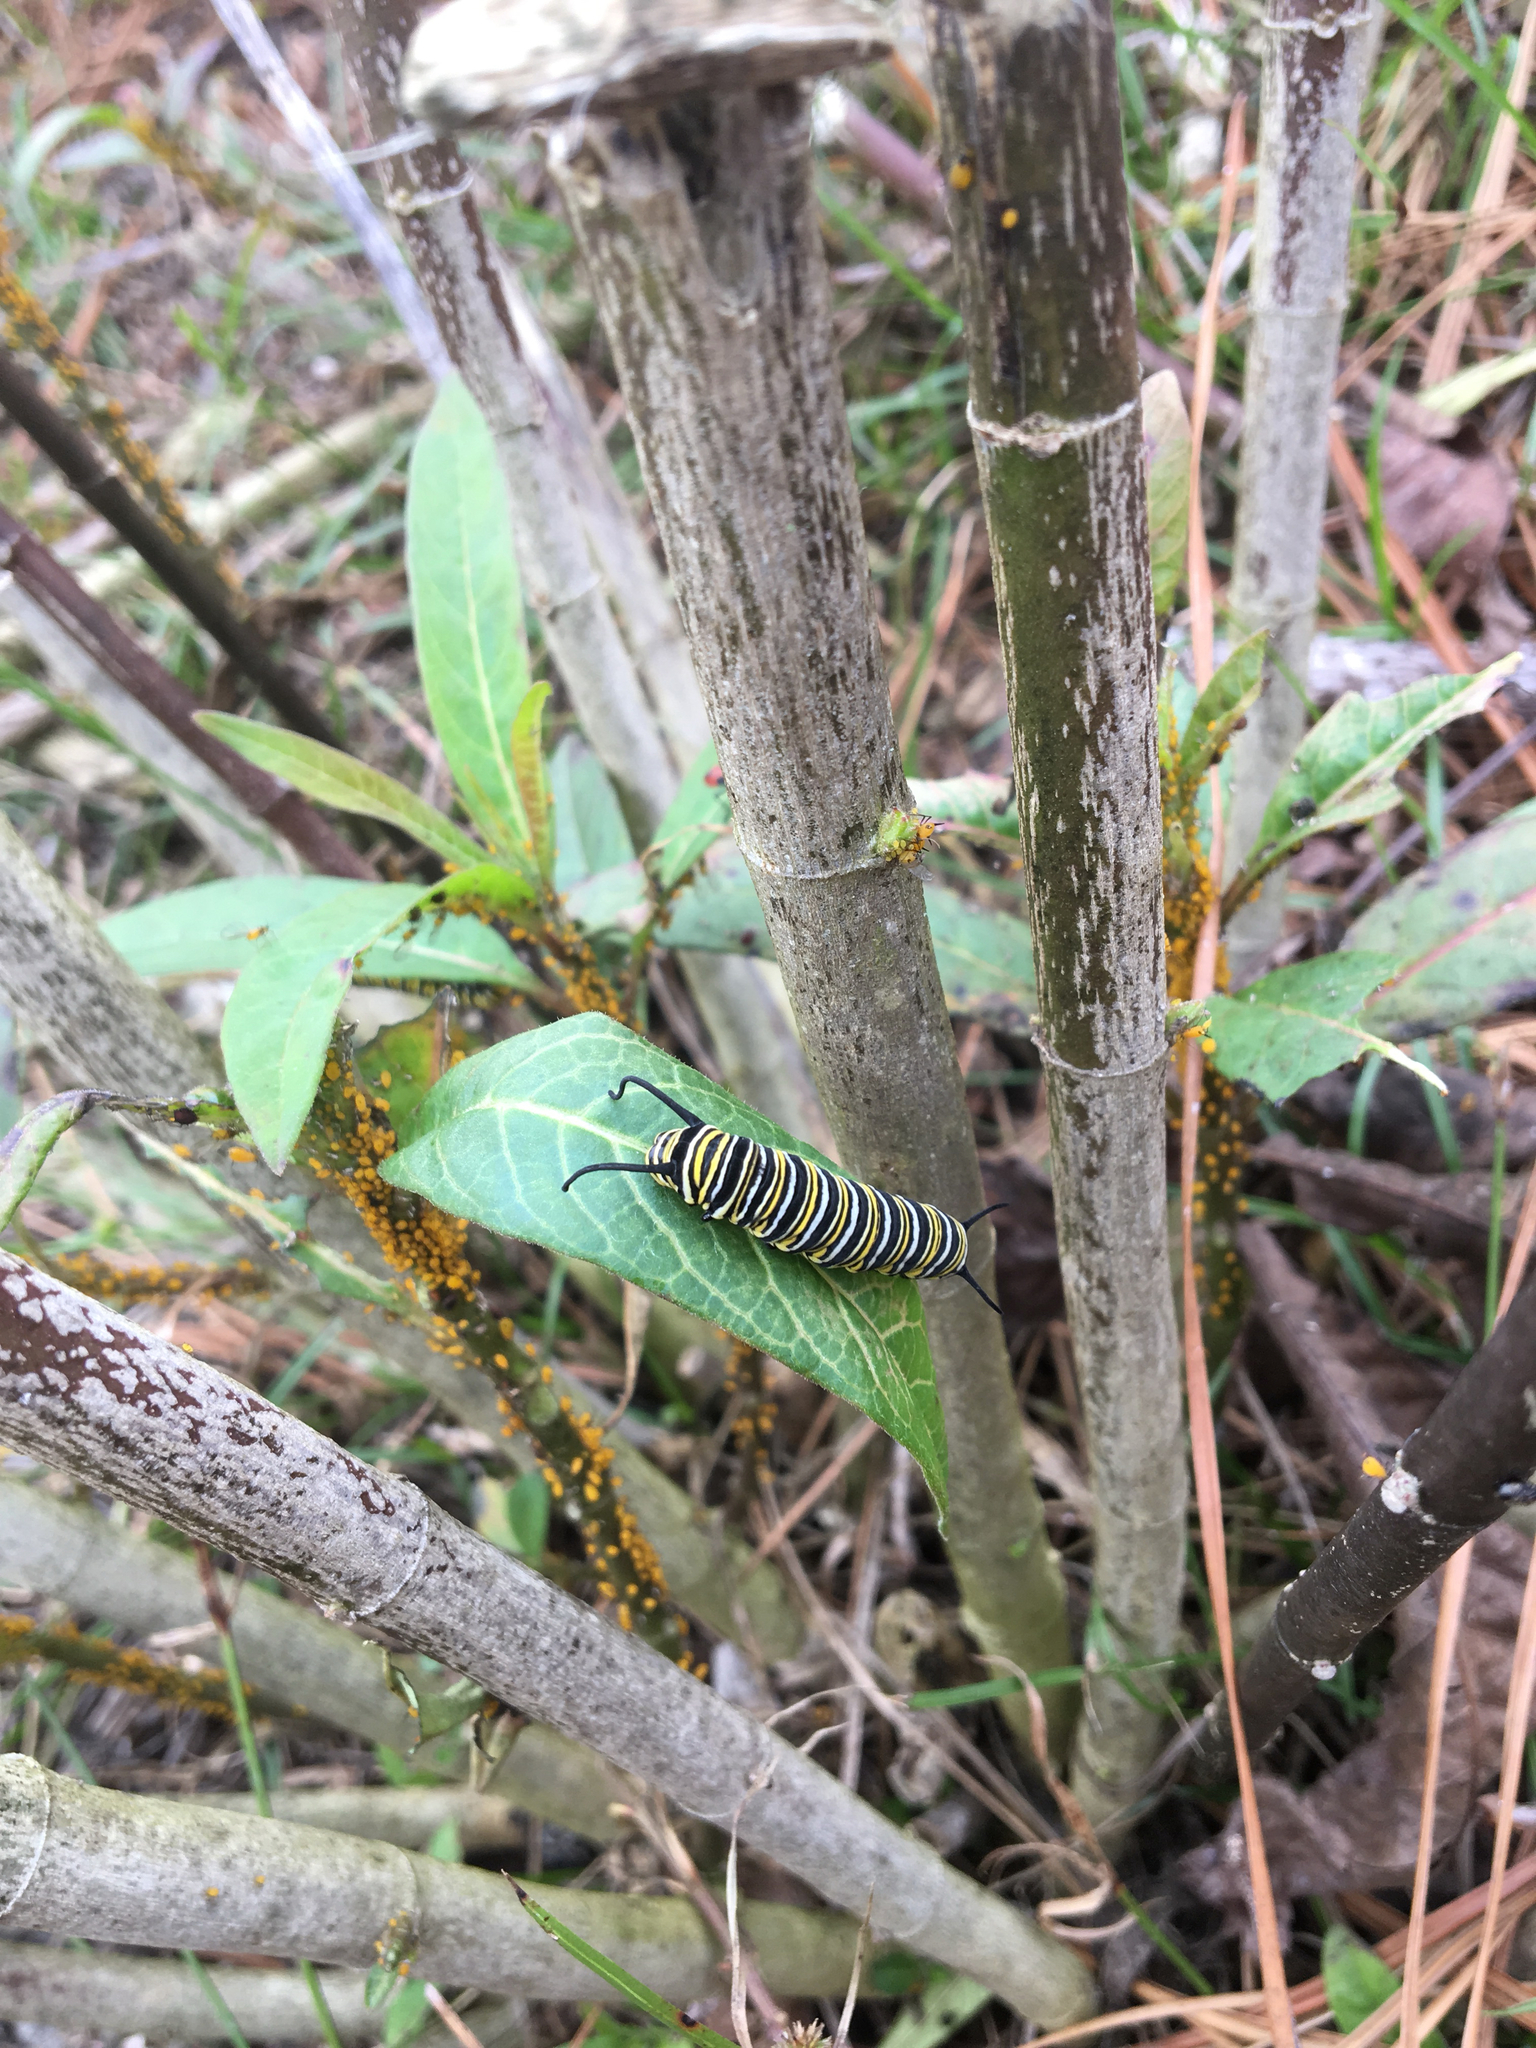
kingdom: Animalia
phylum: Arthropoda
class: Insecta
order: Lepidoptera
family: Nymphalidae
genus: Danaus
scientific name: Danaus plexippus
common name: Monarch
